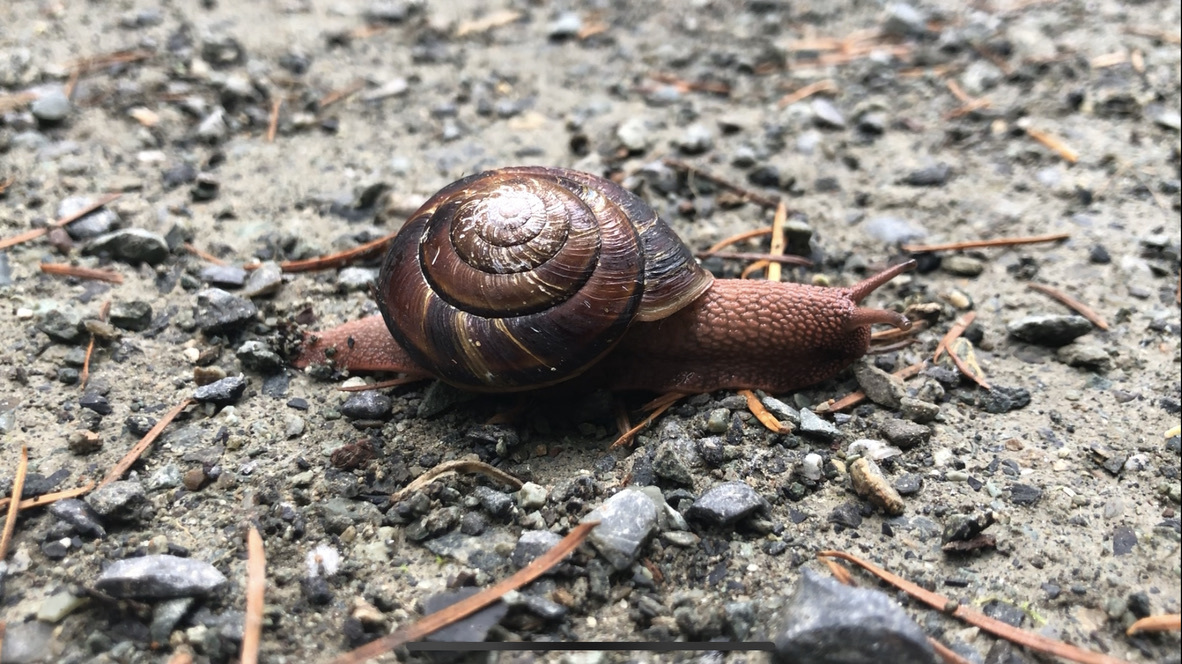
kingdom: Animalia
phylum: Mollusca
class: Gastropoda
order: Stylommatophora
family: Xanthonychidae
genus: Monadenia
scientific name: Monadenia fidelis
